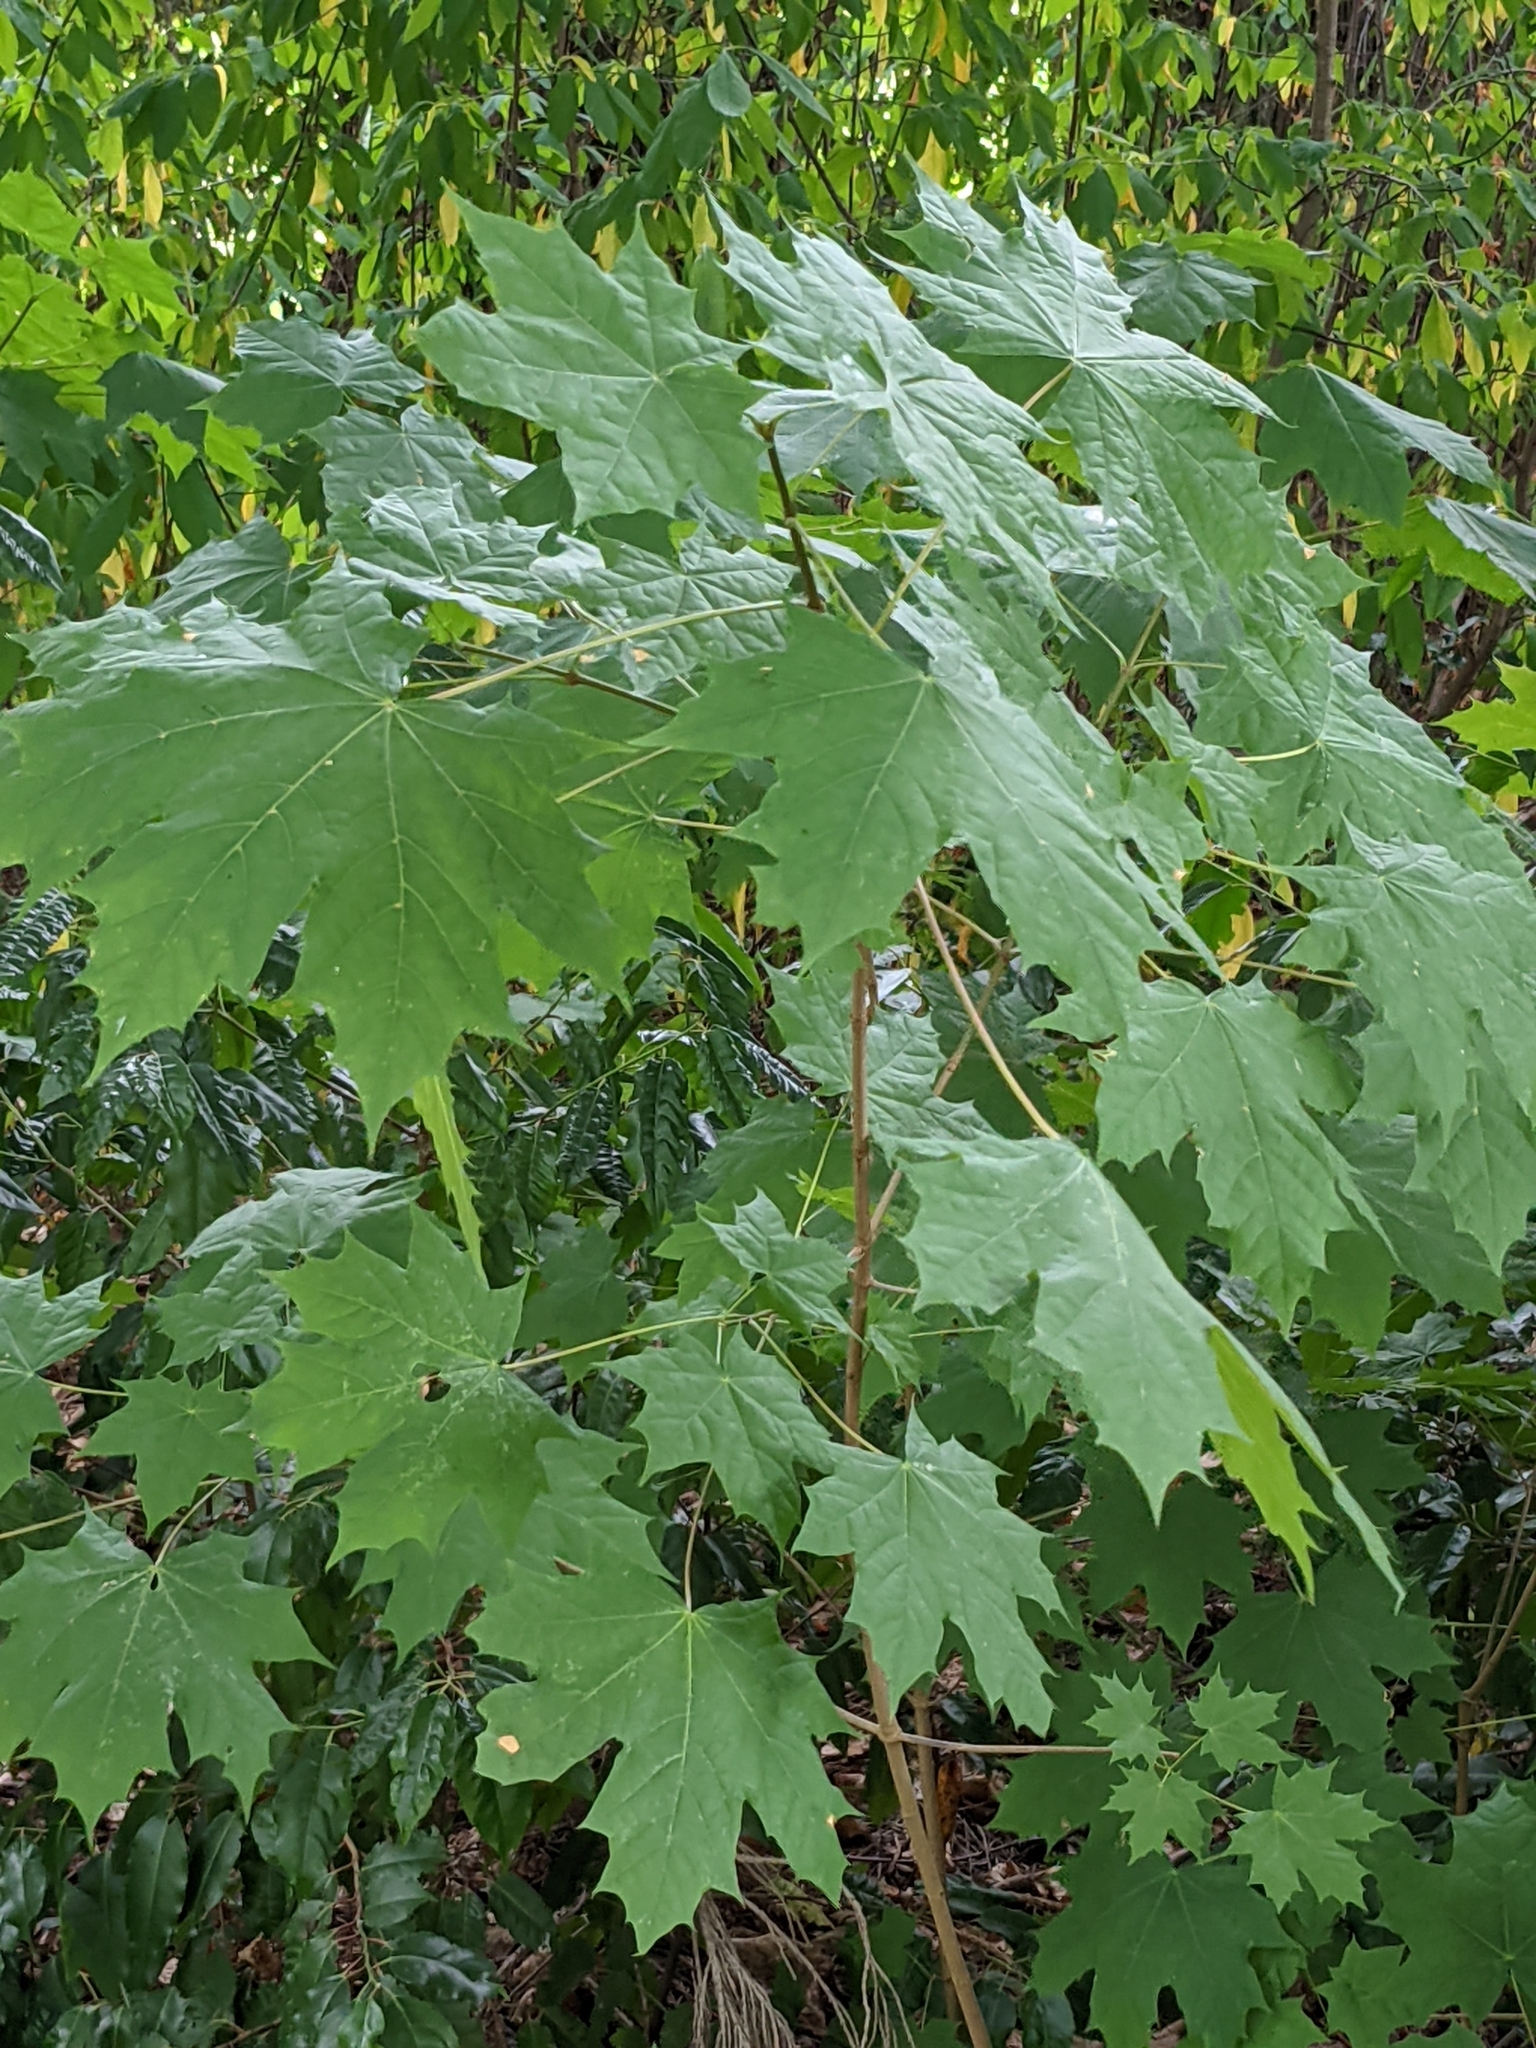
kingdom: Plantae
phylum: Tracheophyta
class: Magnoliopsida
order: Sapindales
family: Sapindaceae
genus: Acer
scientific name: Acer platanoides
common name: Norway maple
